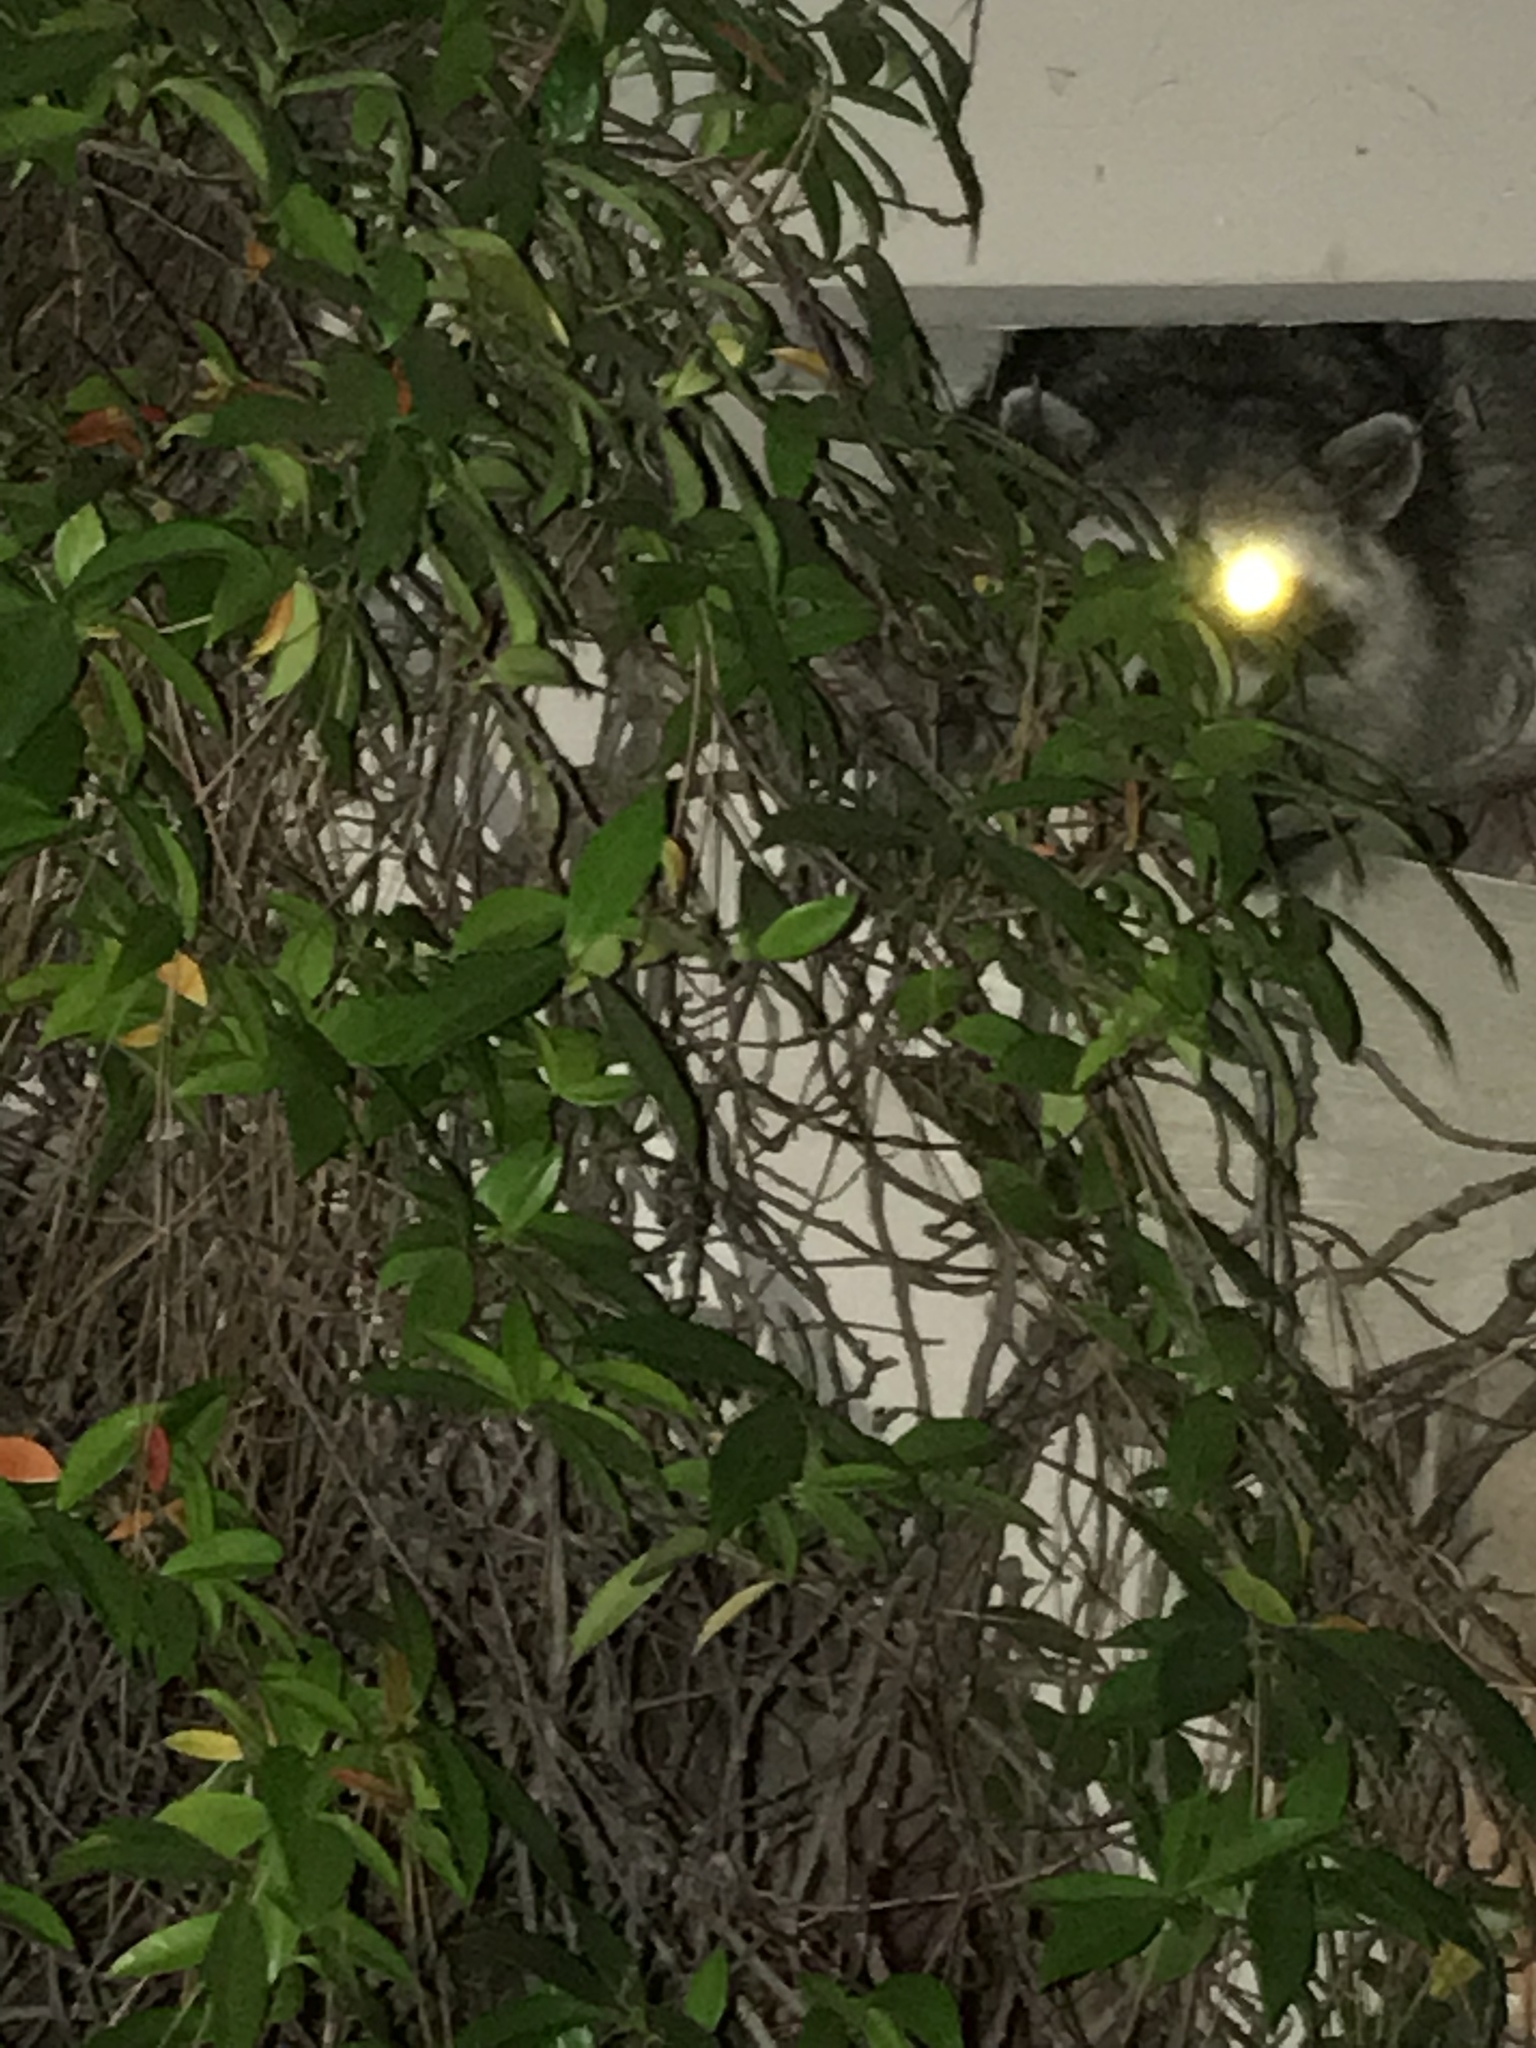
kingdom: Animalia
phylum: Chordata
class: Mammalia
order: Carnivora
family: Procyonidae
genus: Procyon
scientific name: Procyon lotor
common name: Raccoon
